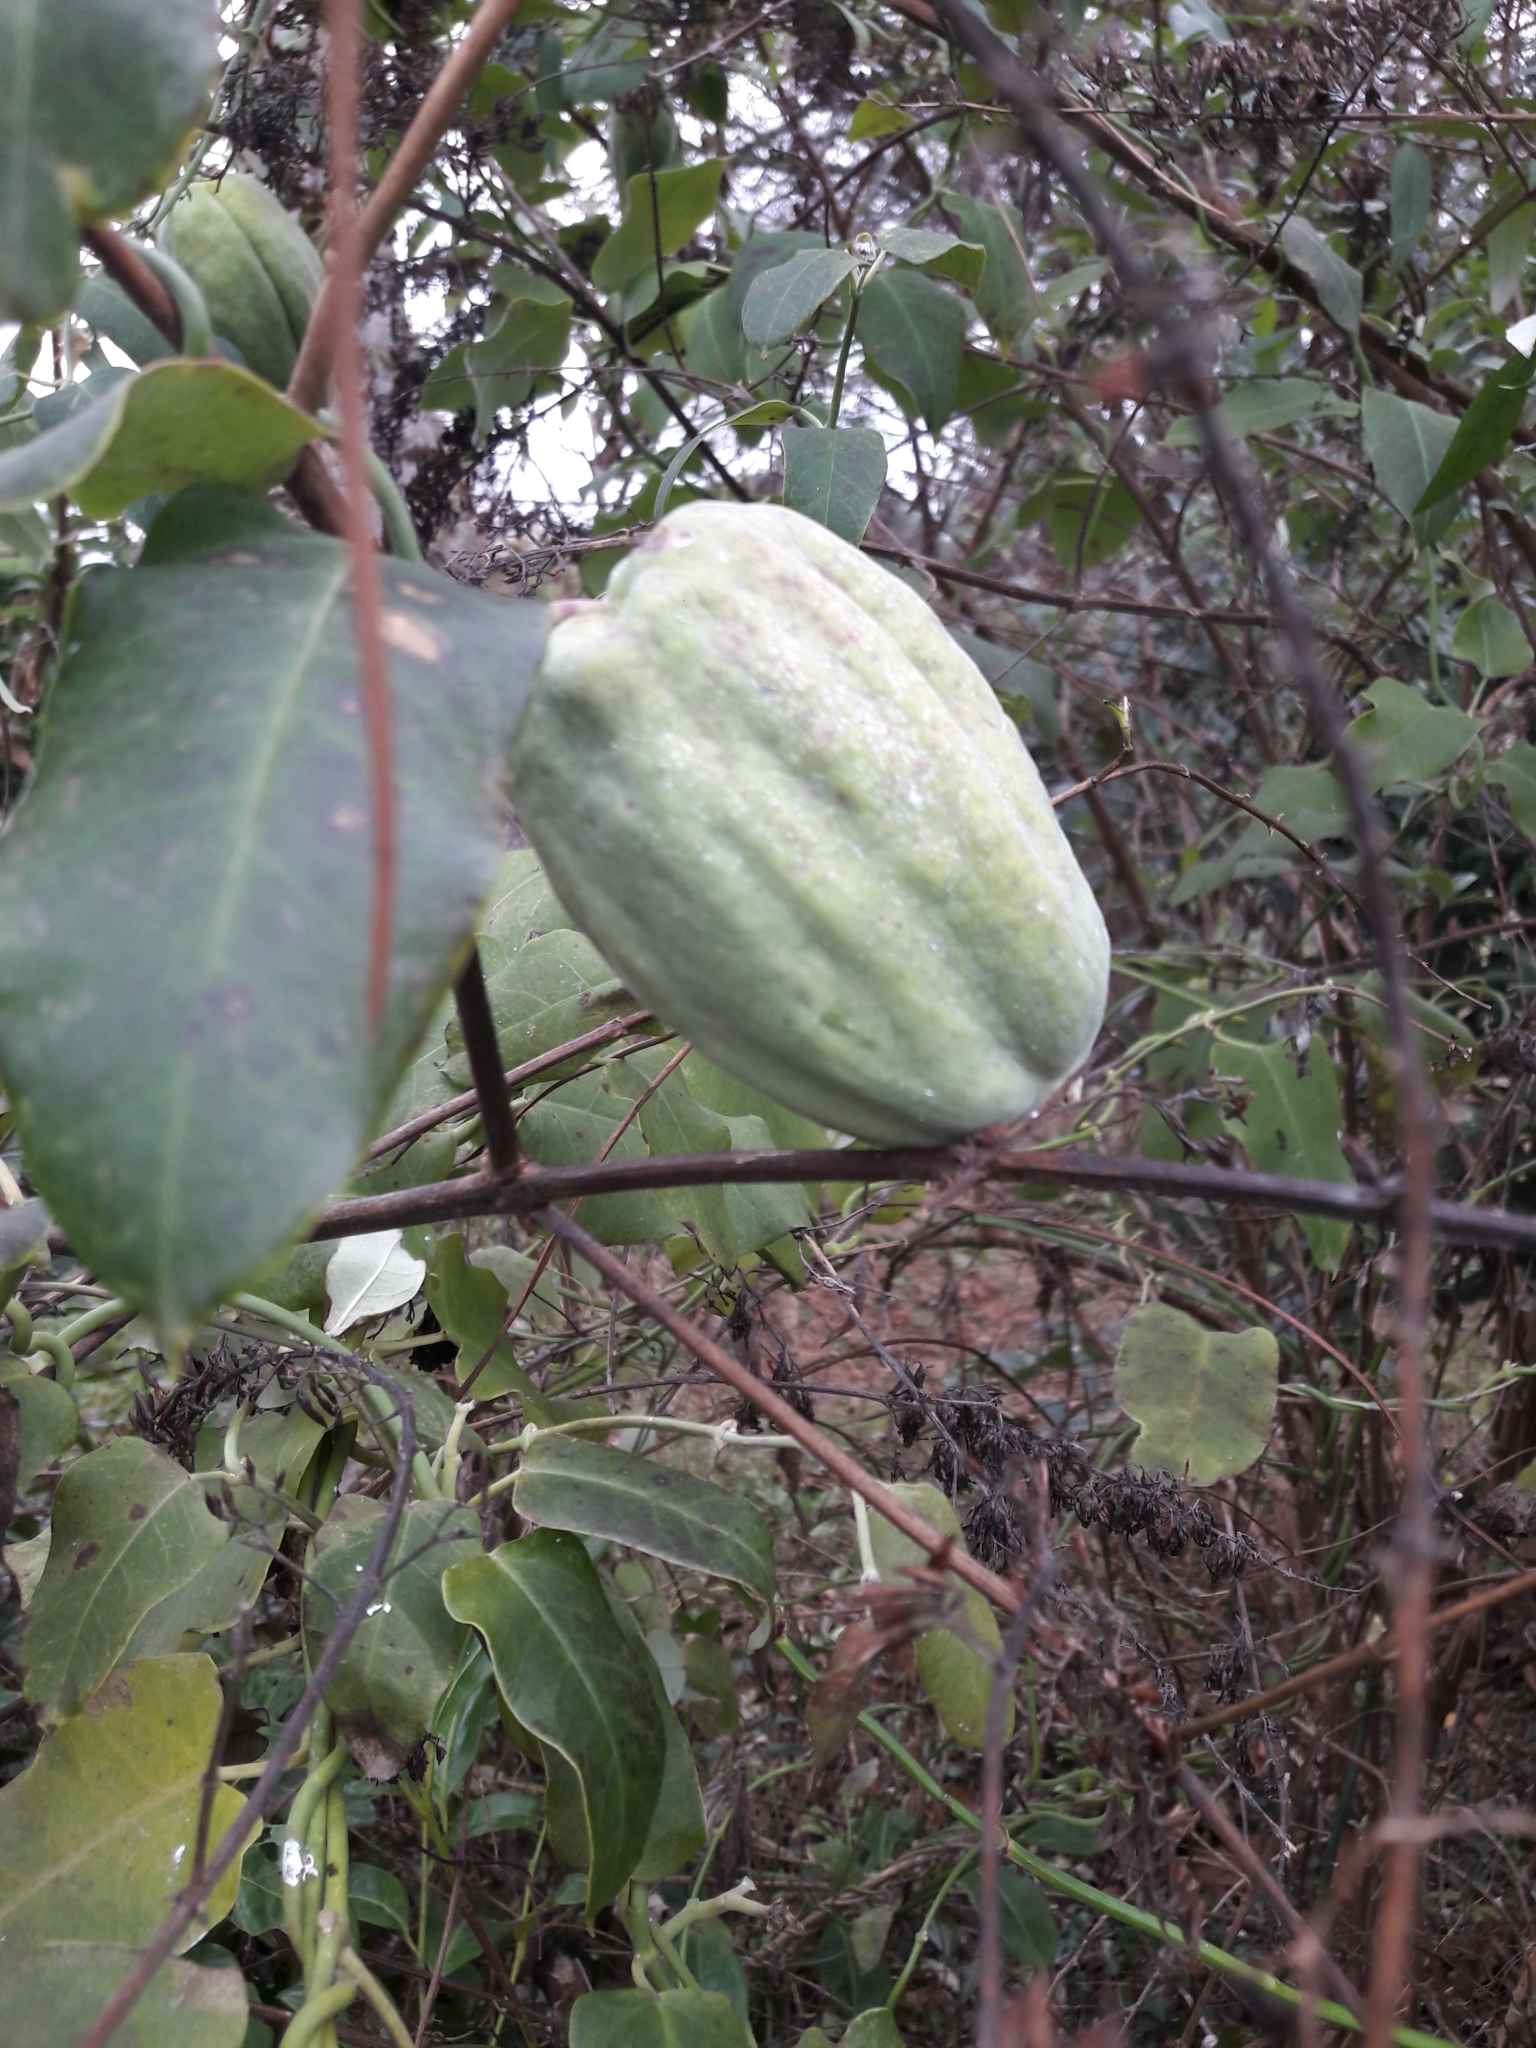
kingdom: Plantae
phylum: Tracheophyta
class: Magnoliopsida
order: Gentianales
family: Apocynaceae
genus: Araujia
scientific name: Araujia sericifera
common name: White bladderflower
